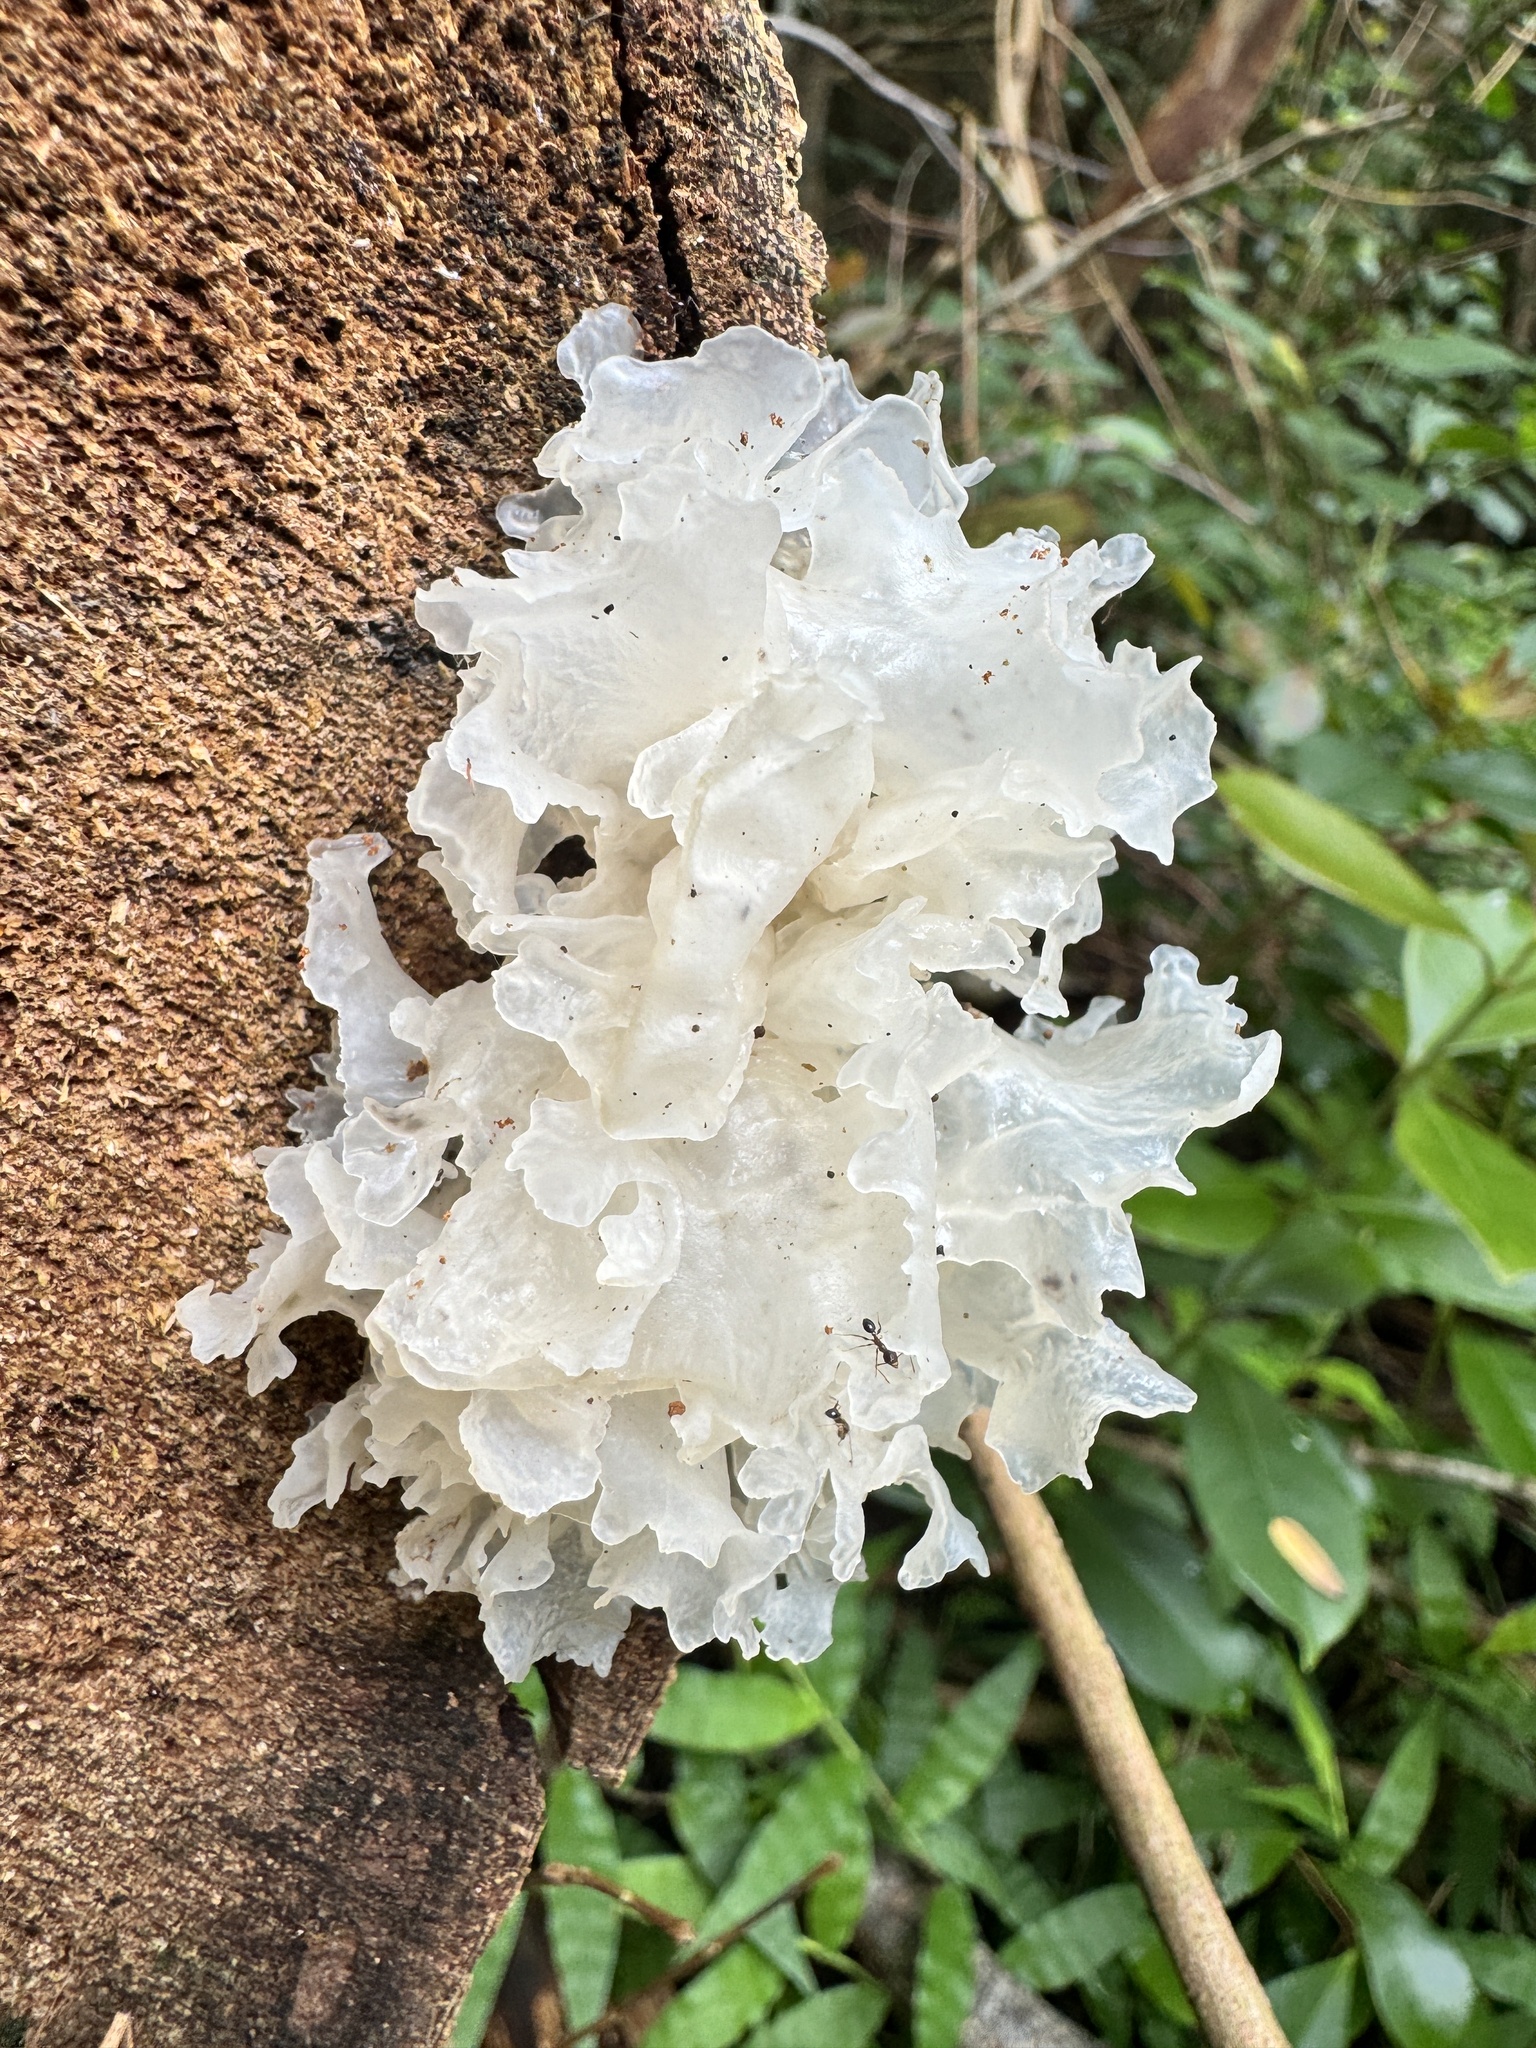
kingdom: Fungi
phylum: Basidiomycota
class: Tremellomycetes
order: Tremellales
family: Tremellaceae
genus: Tremella
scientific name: Tremella fuciformis
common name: Snow fungus
